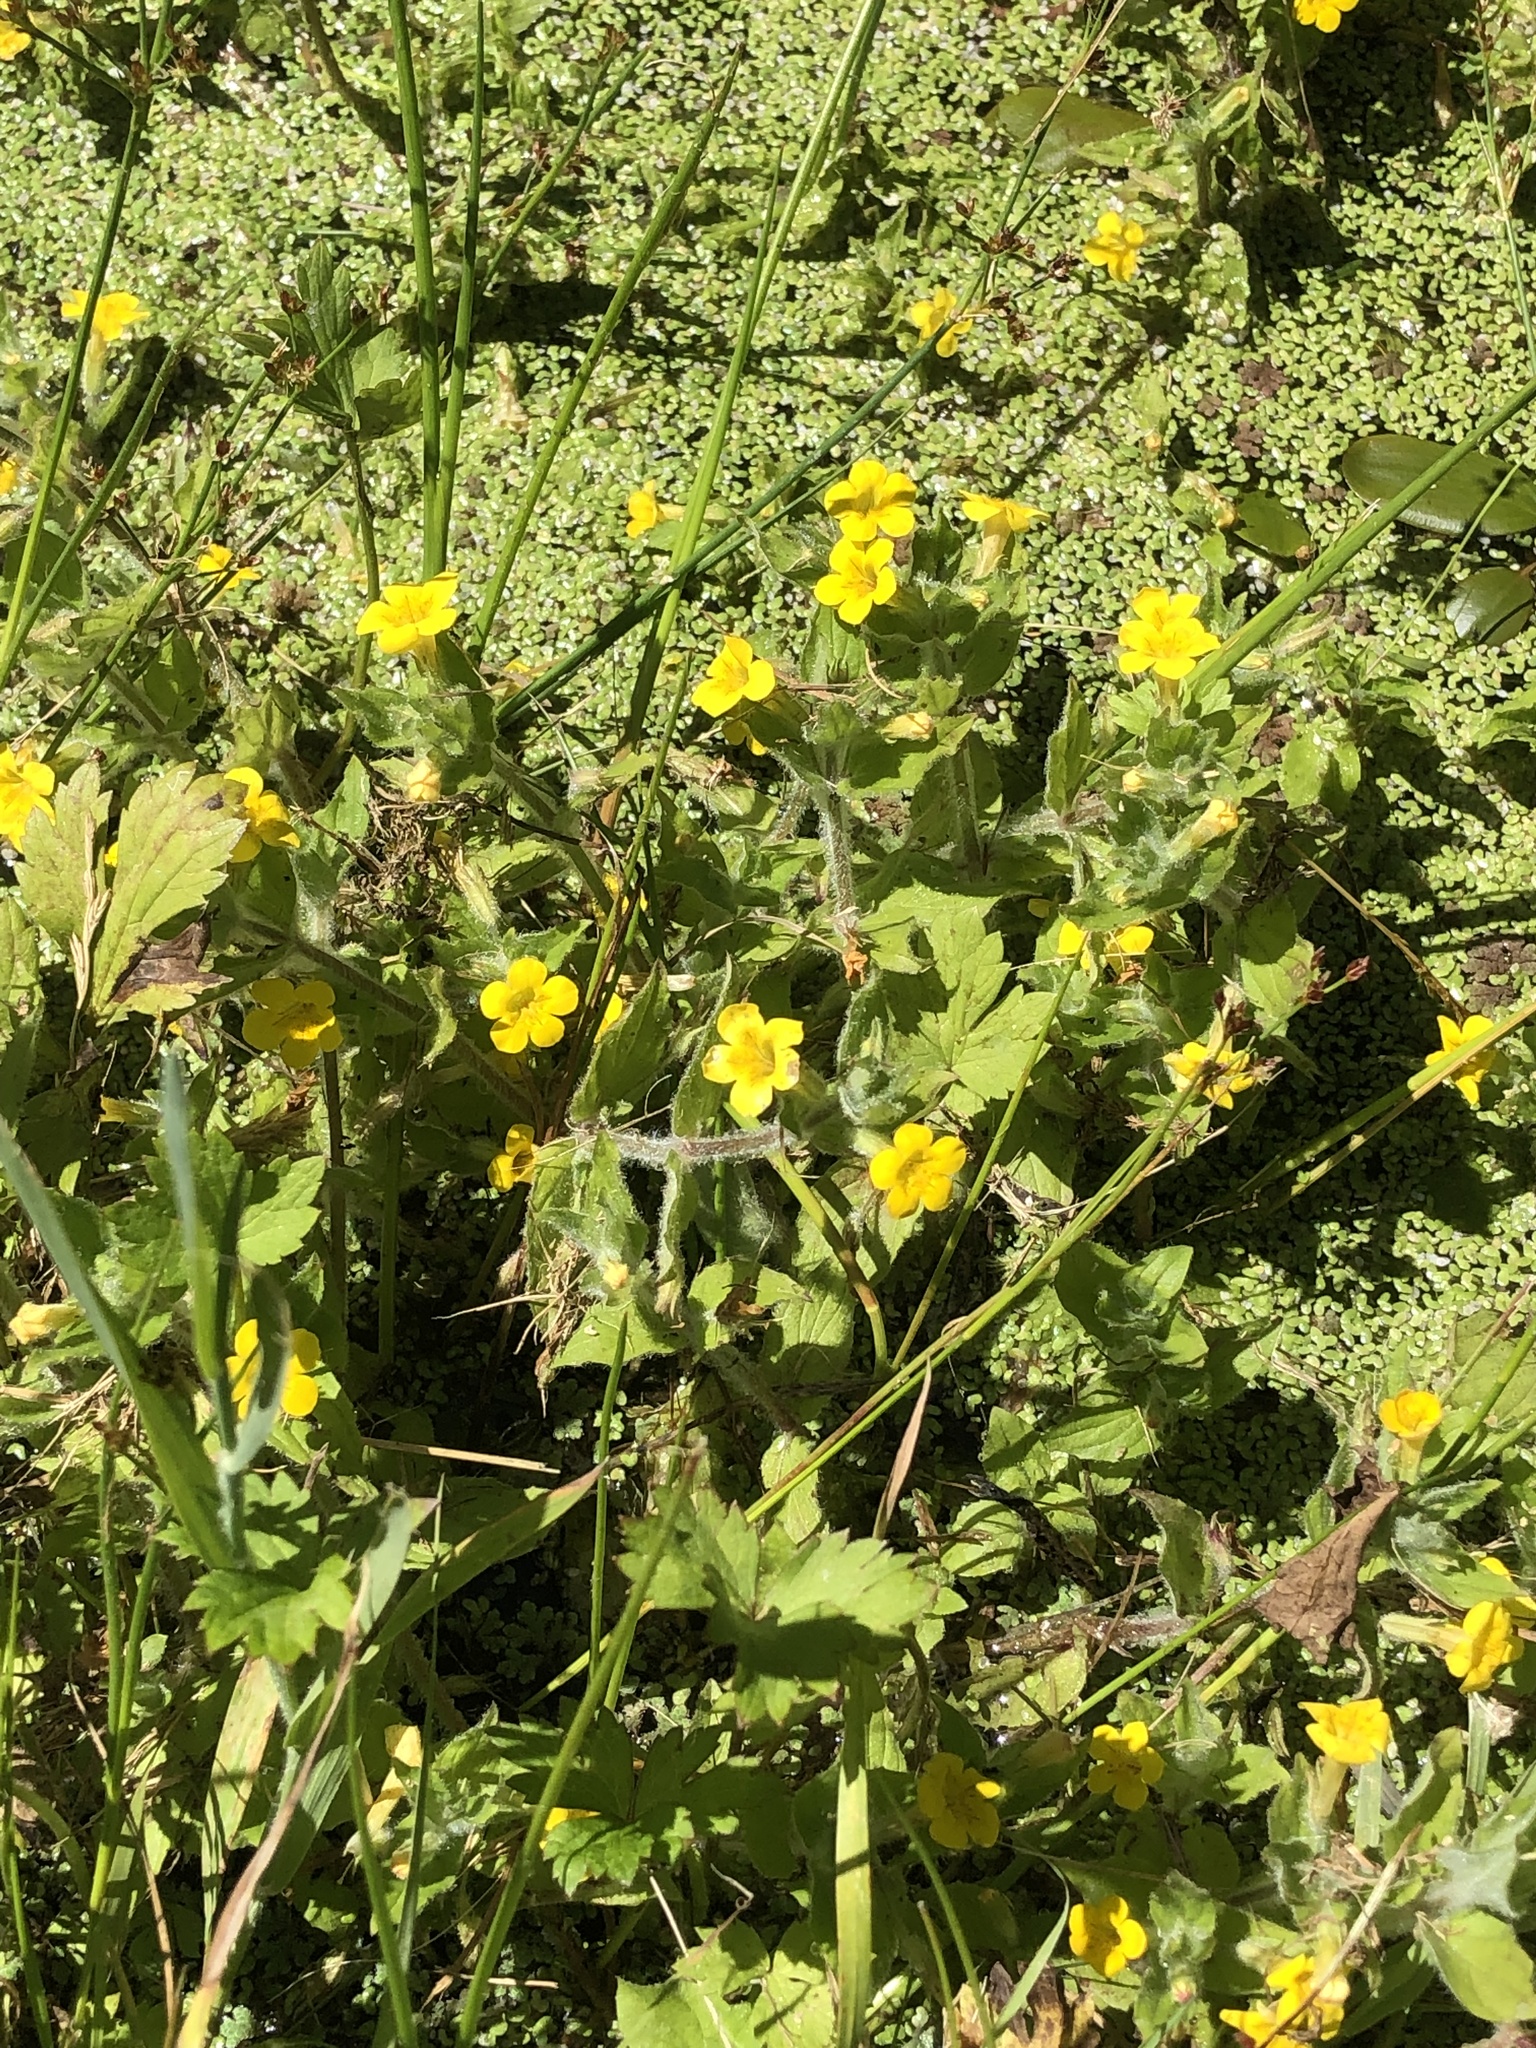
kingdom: Plantae
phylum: Tracheophyta
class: Magnoliopsida
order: Lamiales
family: Phrymaceae
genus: Erythranthe
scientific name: Erythranthe moschata
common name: Muskflower
